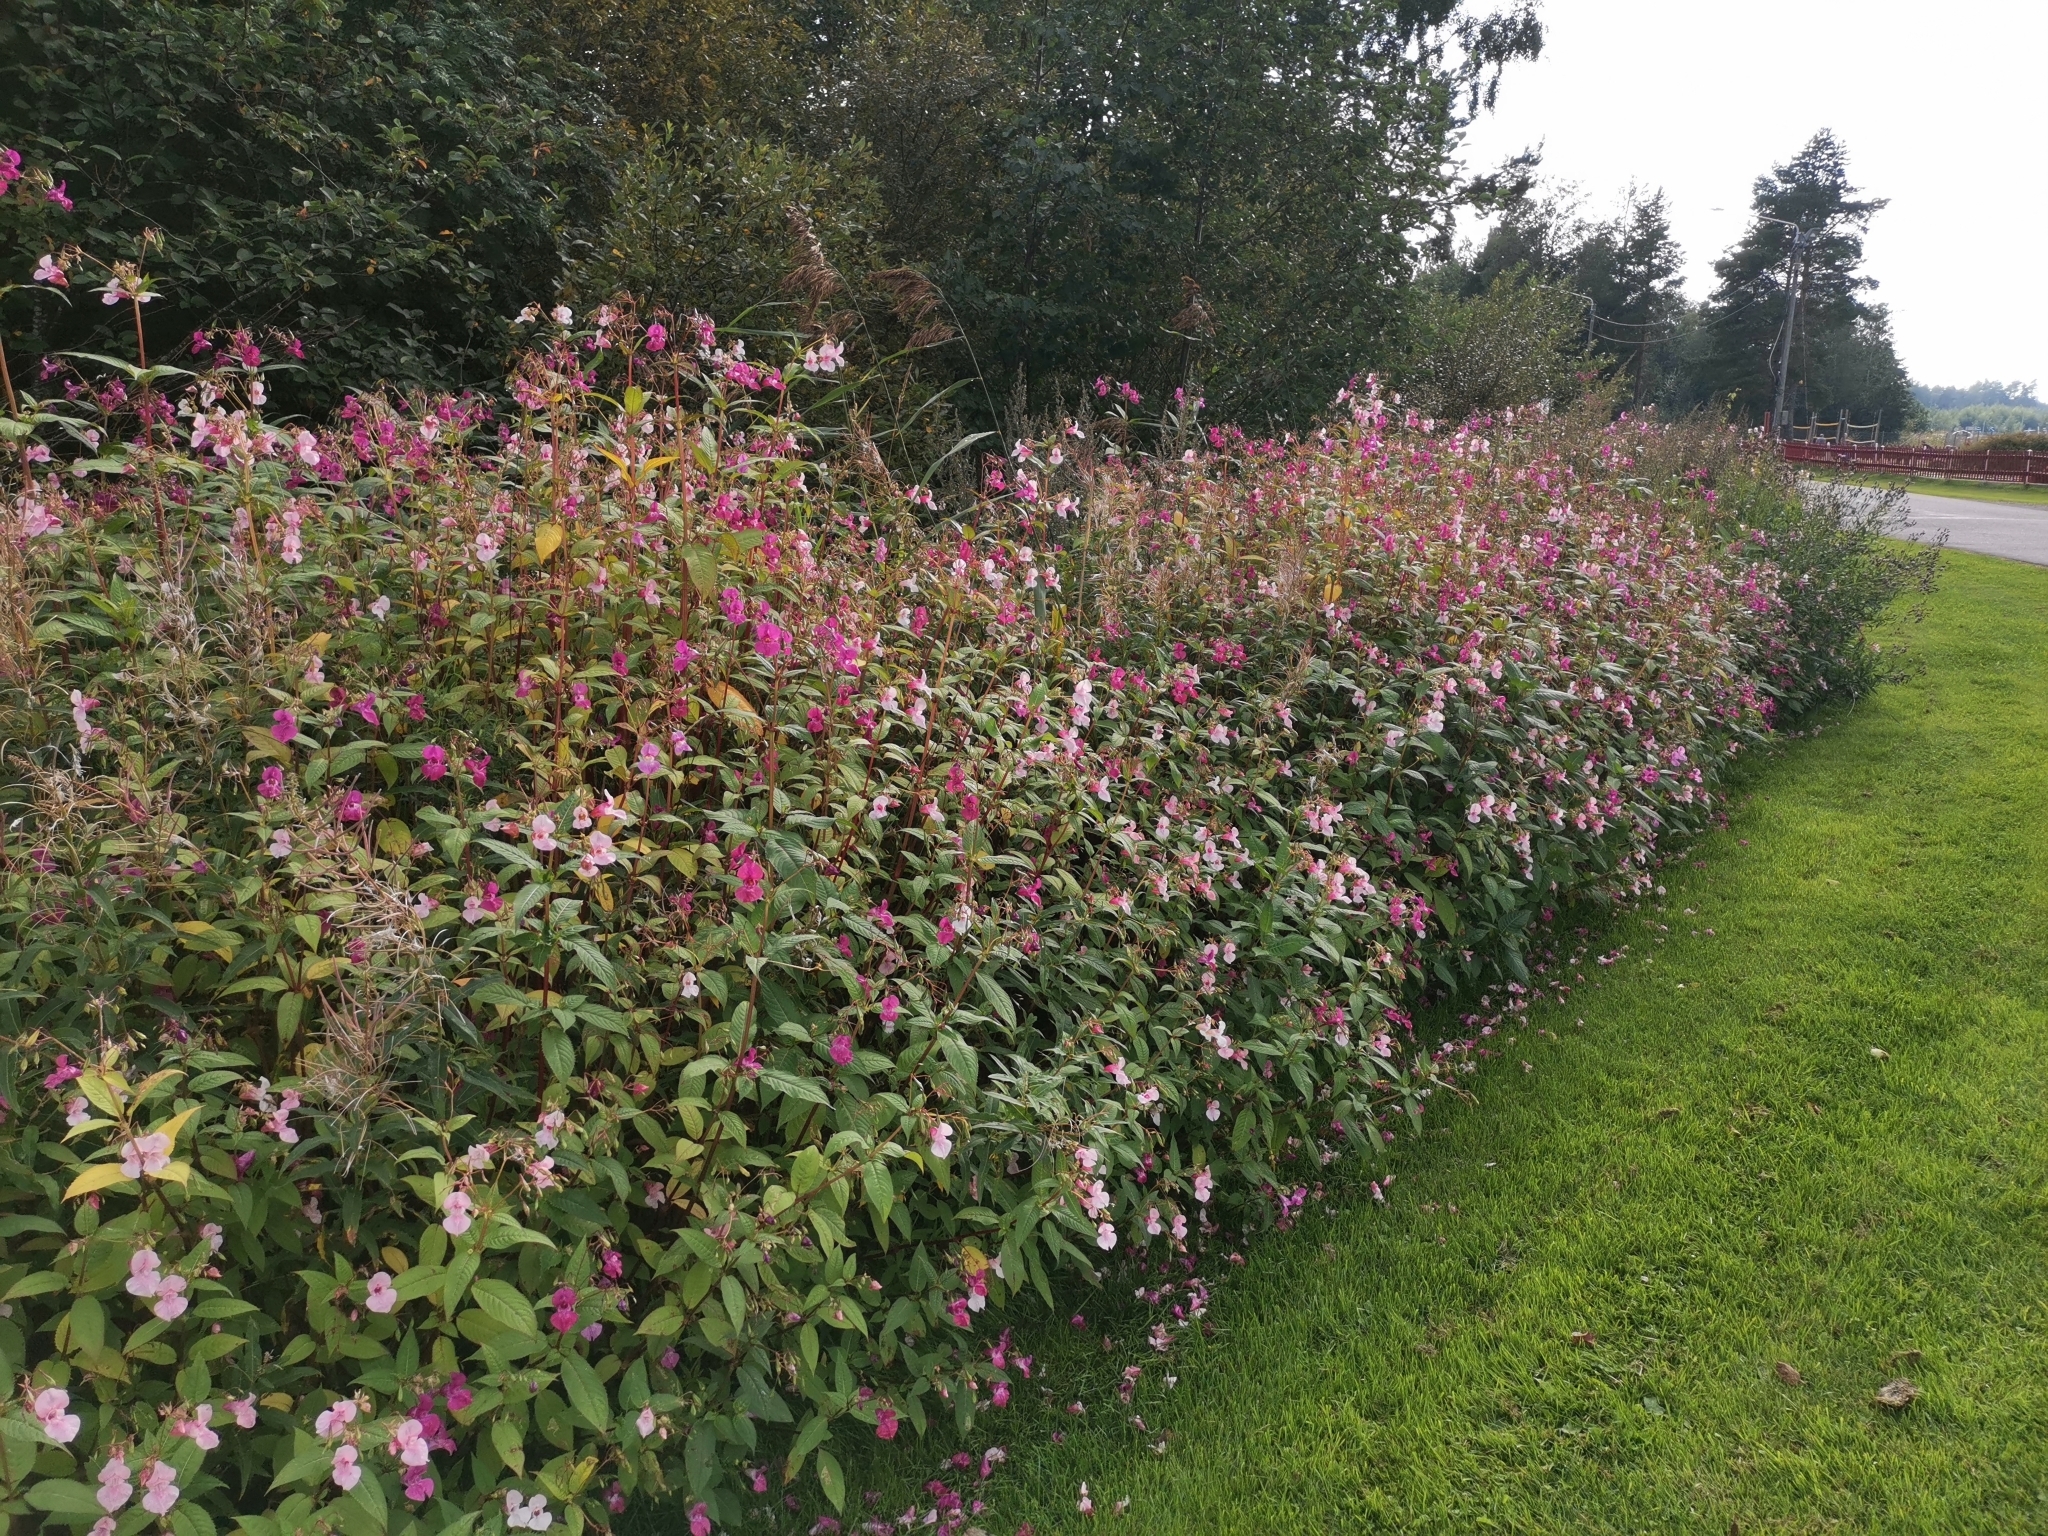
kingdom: Plantae
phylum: Tracheophyta
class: Magnoliopsida
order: Ericales
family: Balsaminaceae
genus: Impatiens
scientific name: Impatiens glandulifera
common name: Himalayan balsam
